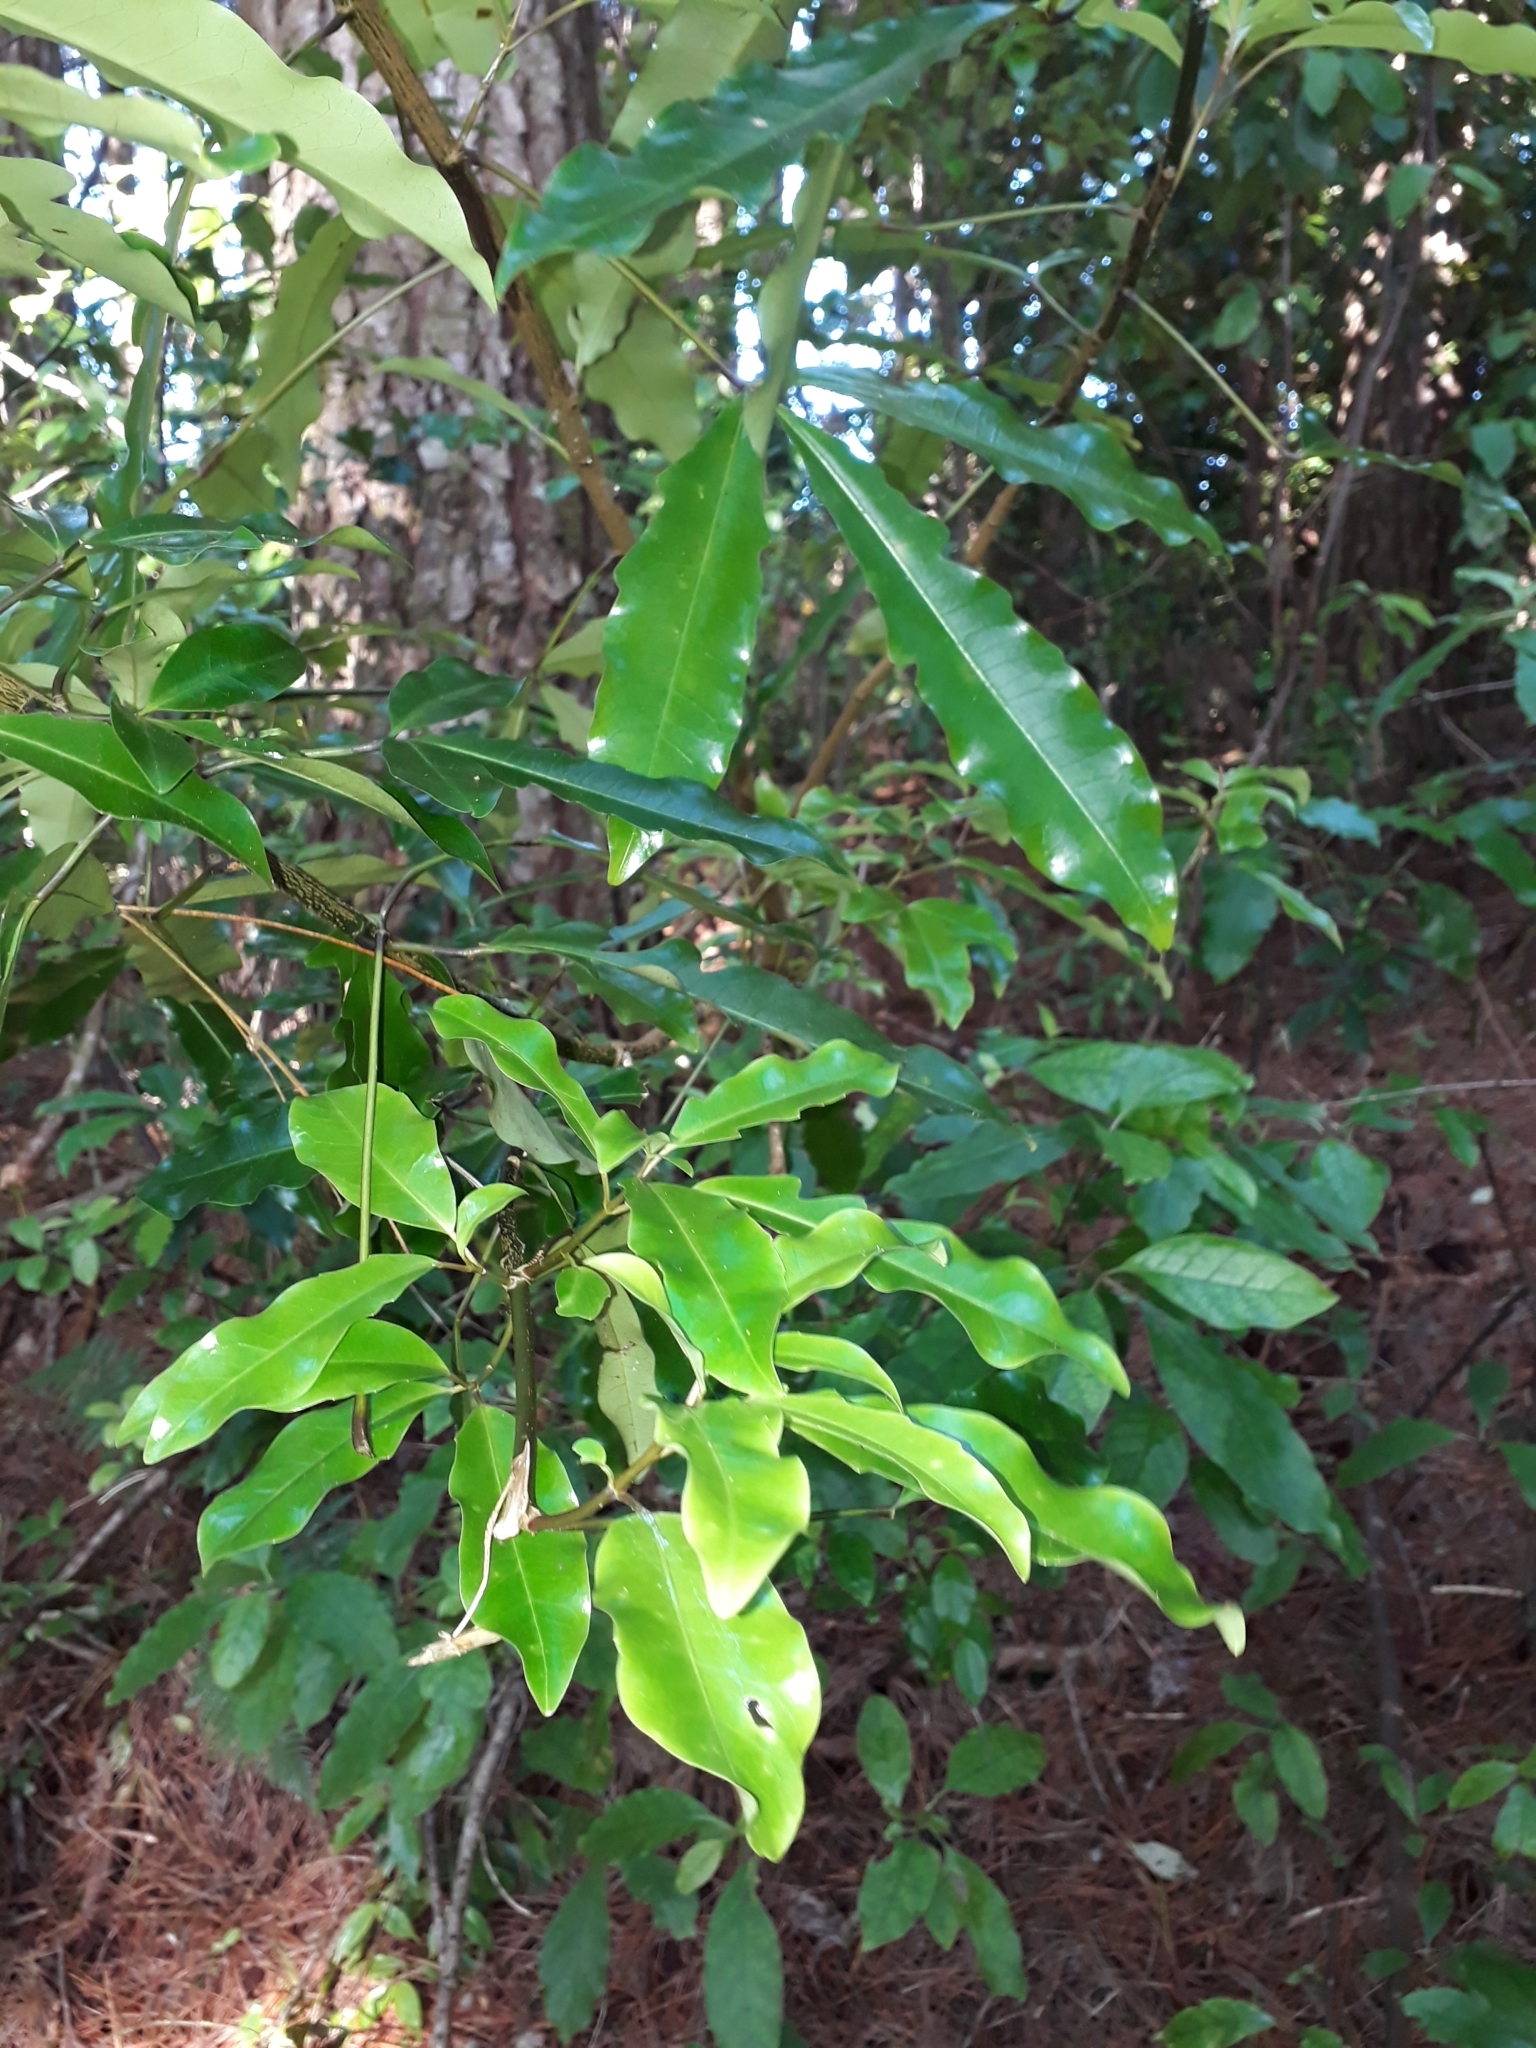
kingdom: Plantae
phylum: Tracheophyta
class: Magnoliopsida
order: Apiales
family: Araliaceae
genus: Raukaua
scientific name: Raukaua edgerleyi
